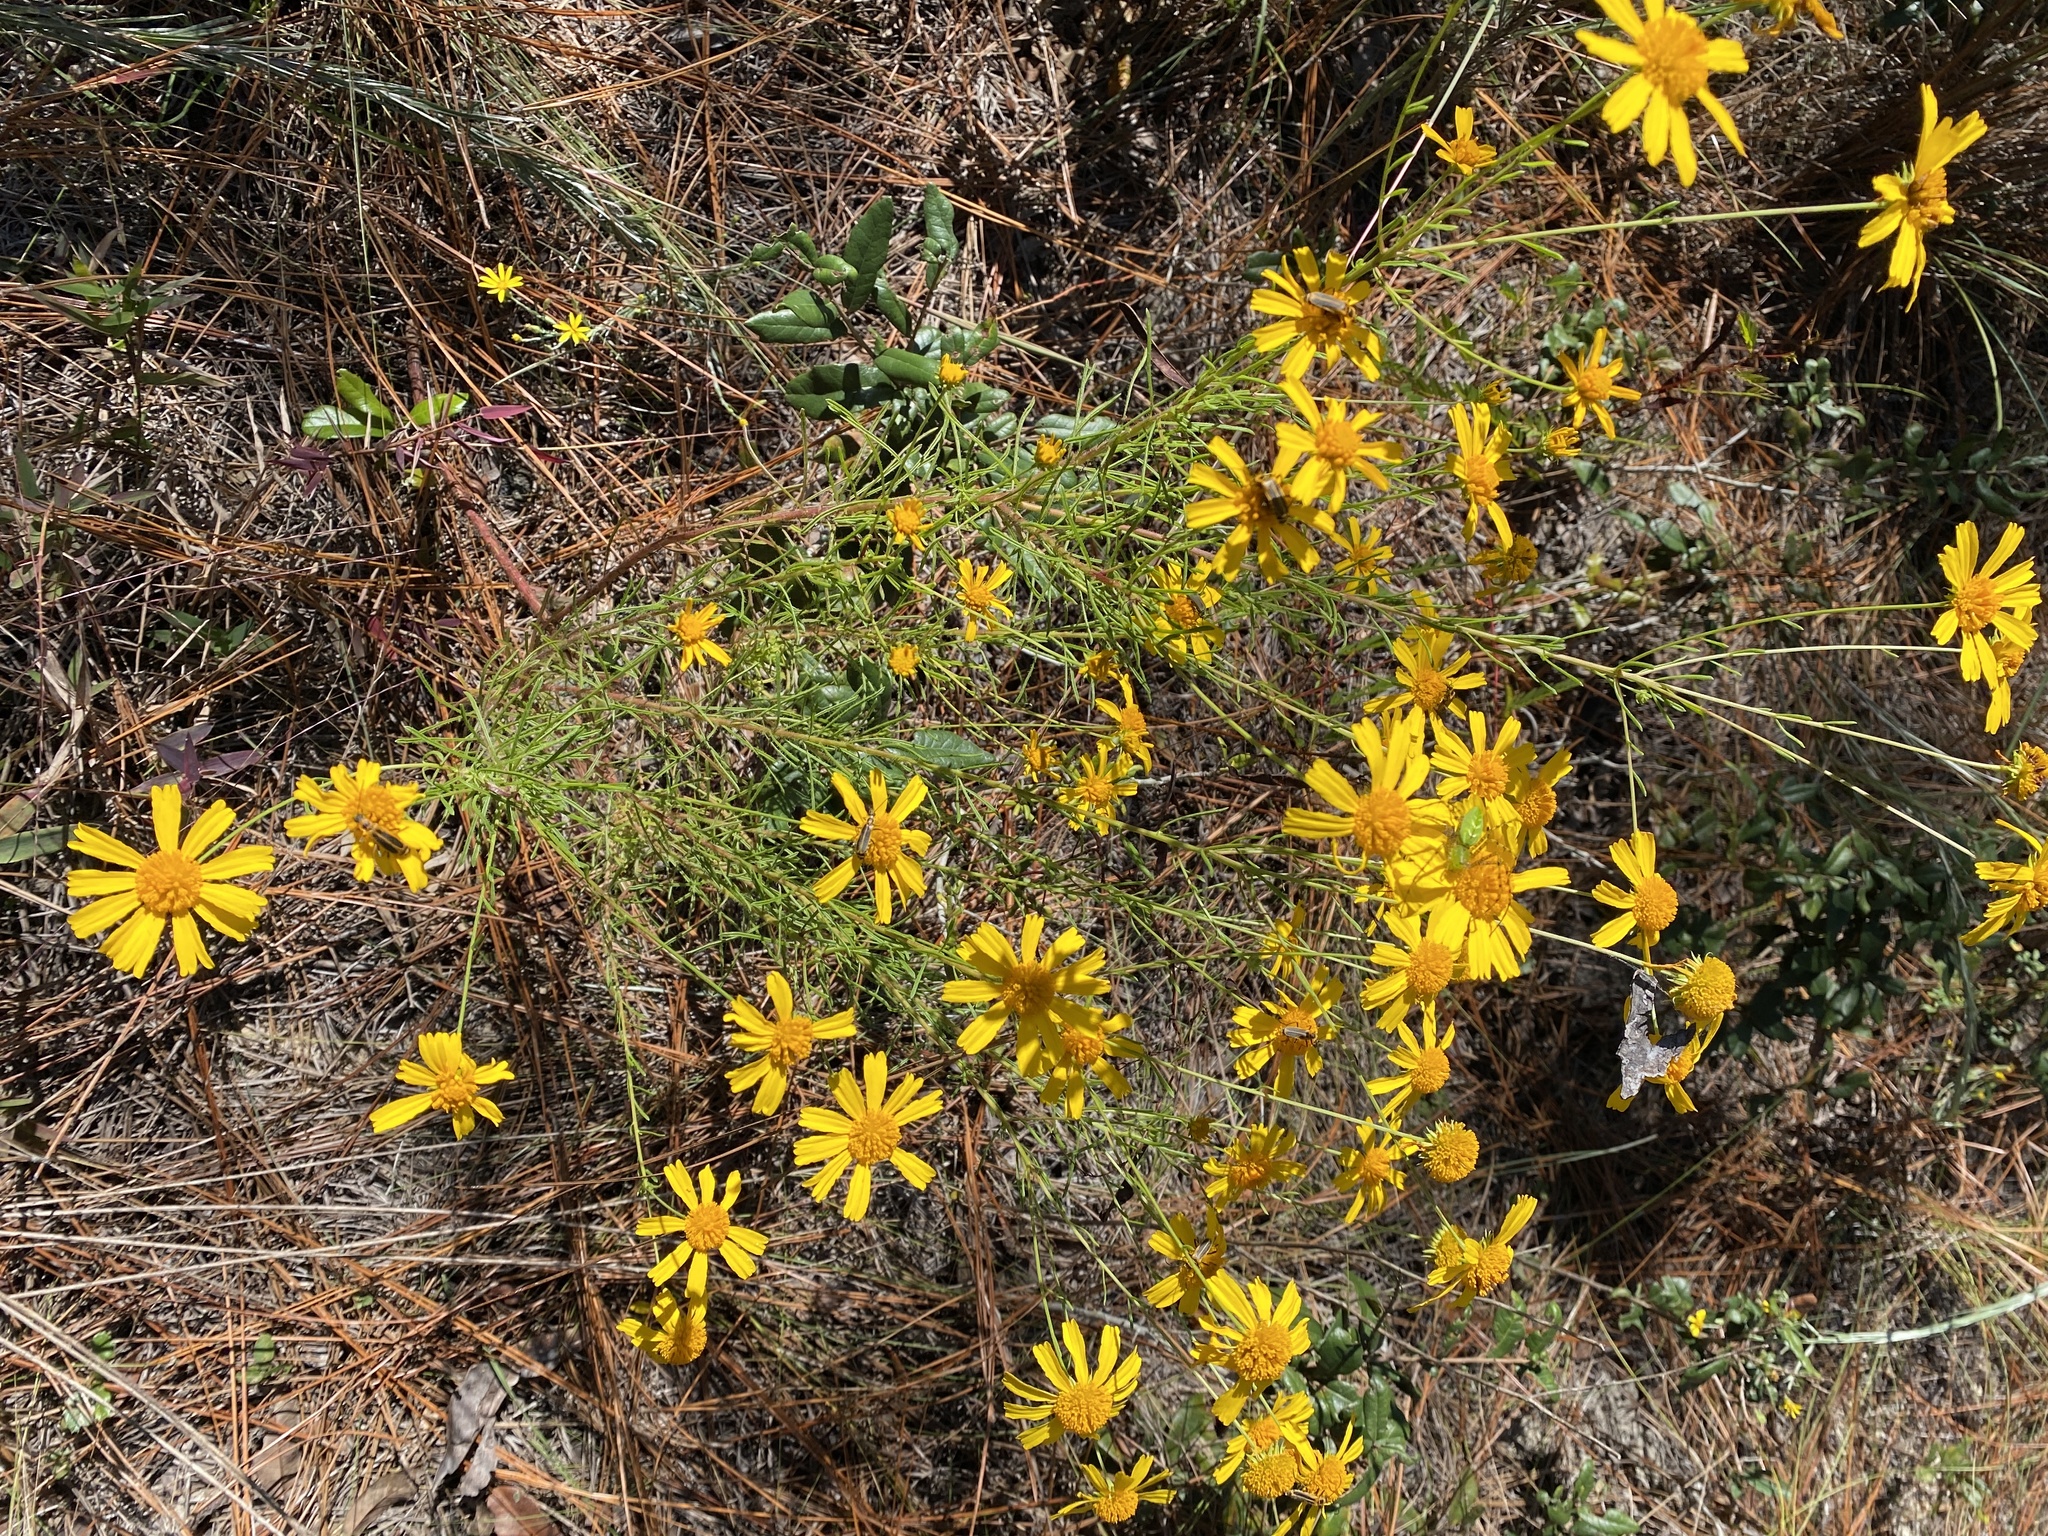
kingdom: Plantae
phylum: Tracheophyta
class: Magnoliopsida
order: Asterales
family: Asteraceae
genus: Balduina
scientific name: Balduina angustifolia
